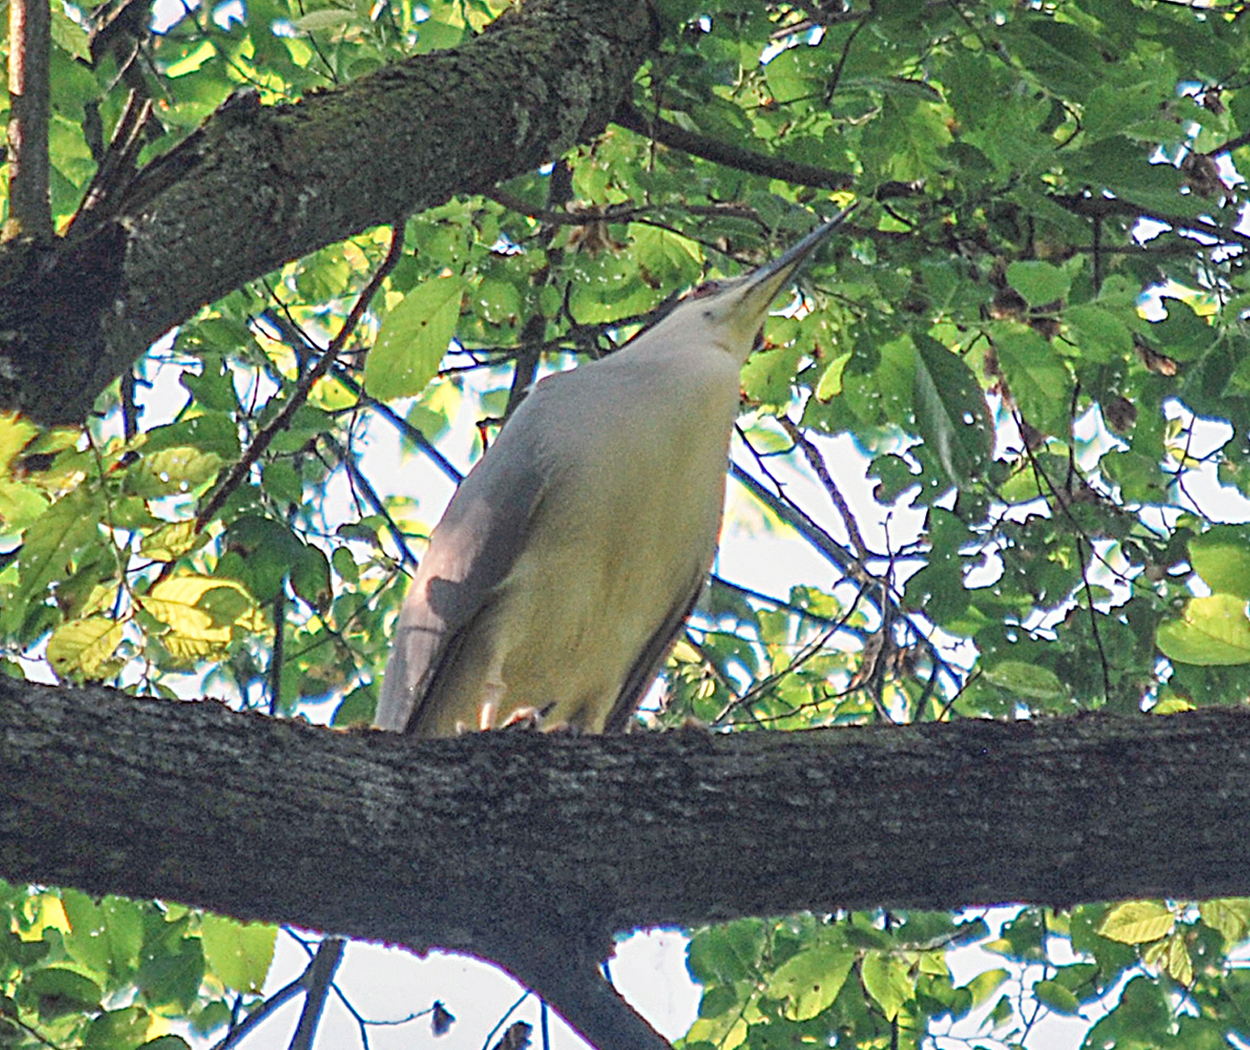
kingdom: Animalia
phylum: Chordata
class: Aves
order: Pelecaniformes
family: Ardeidae
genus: Nycticorax
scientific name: Nycticorax nycticorax
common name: Black-crowned night heron
